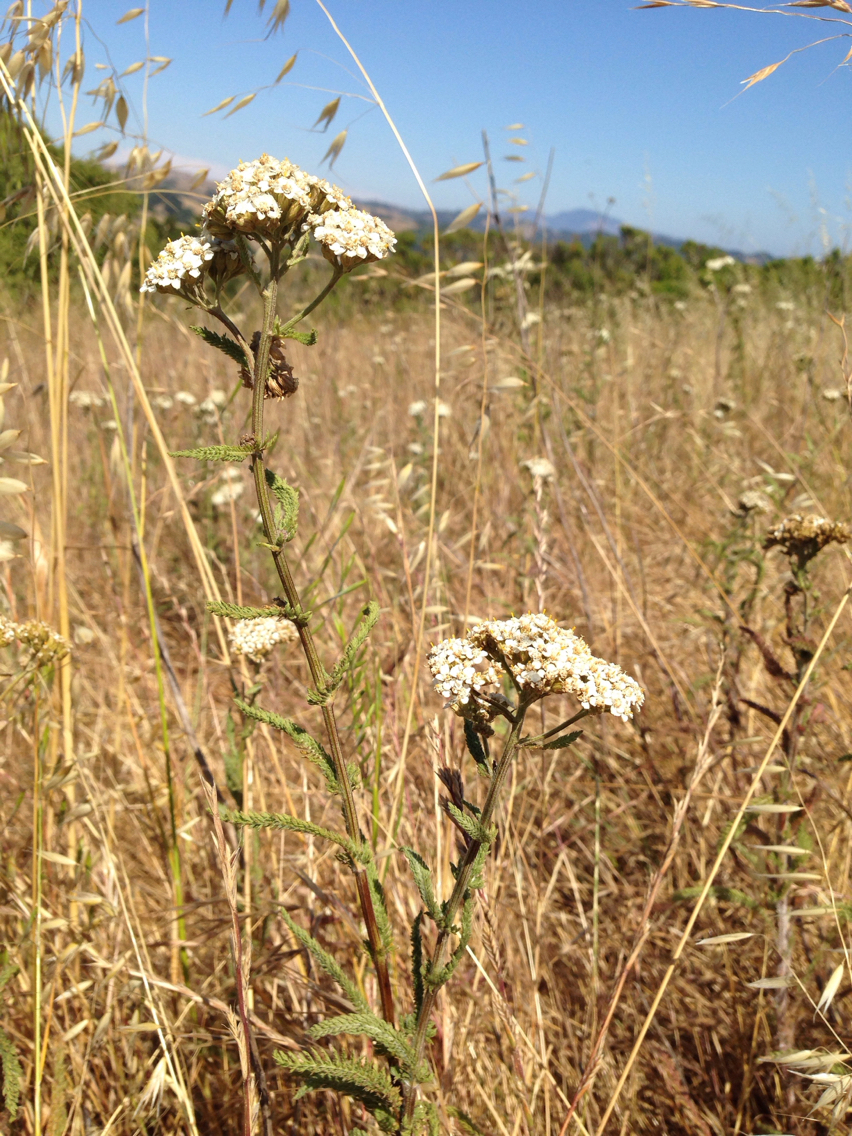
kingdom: Plantae
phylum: Tracheophyta
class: Magnoliopsida
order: Asterales
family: Asteraceae
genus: Achillea
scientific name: Achillea millefolium
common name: Yarrow
